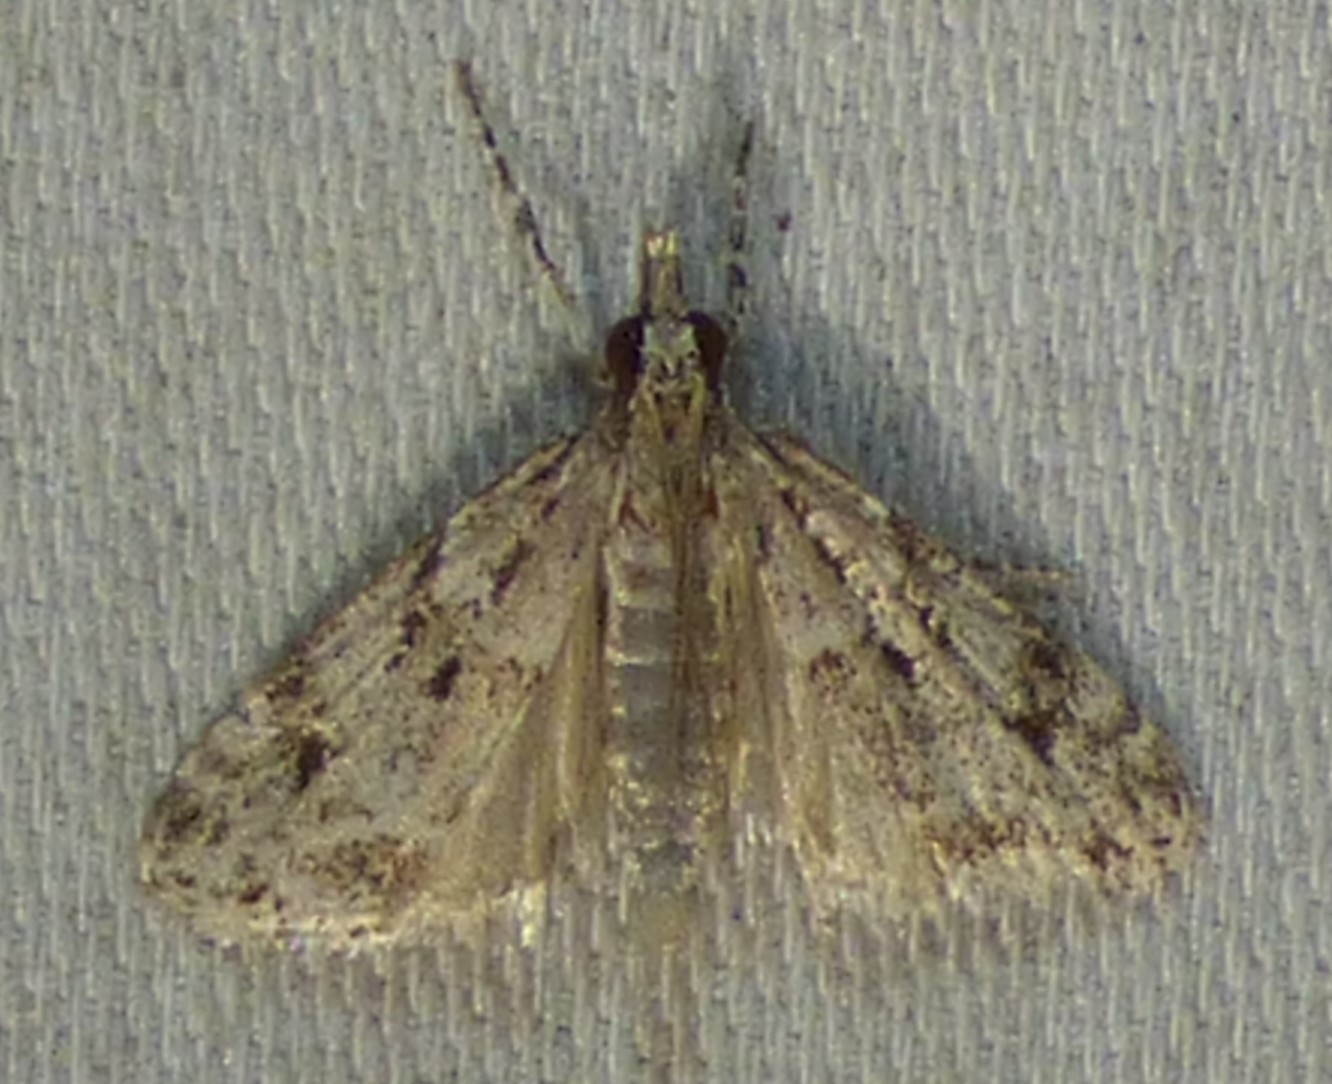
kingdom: Animalia
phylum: Arthropoda
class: Insecta
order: Lepidoptera
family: Crambidae
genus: Eudonia
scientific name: Eudonia heterosalis
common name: Mcdunnough's eudonia
